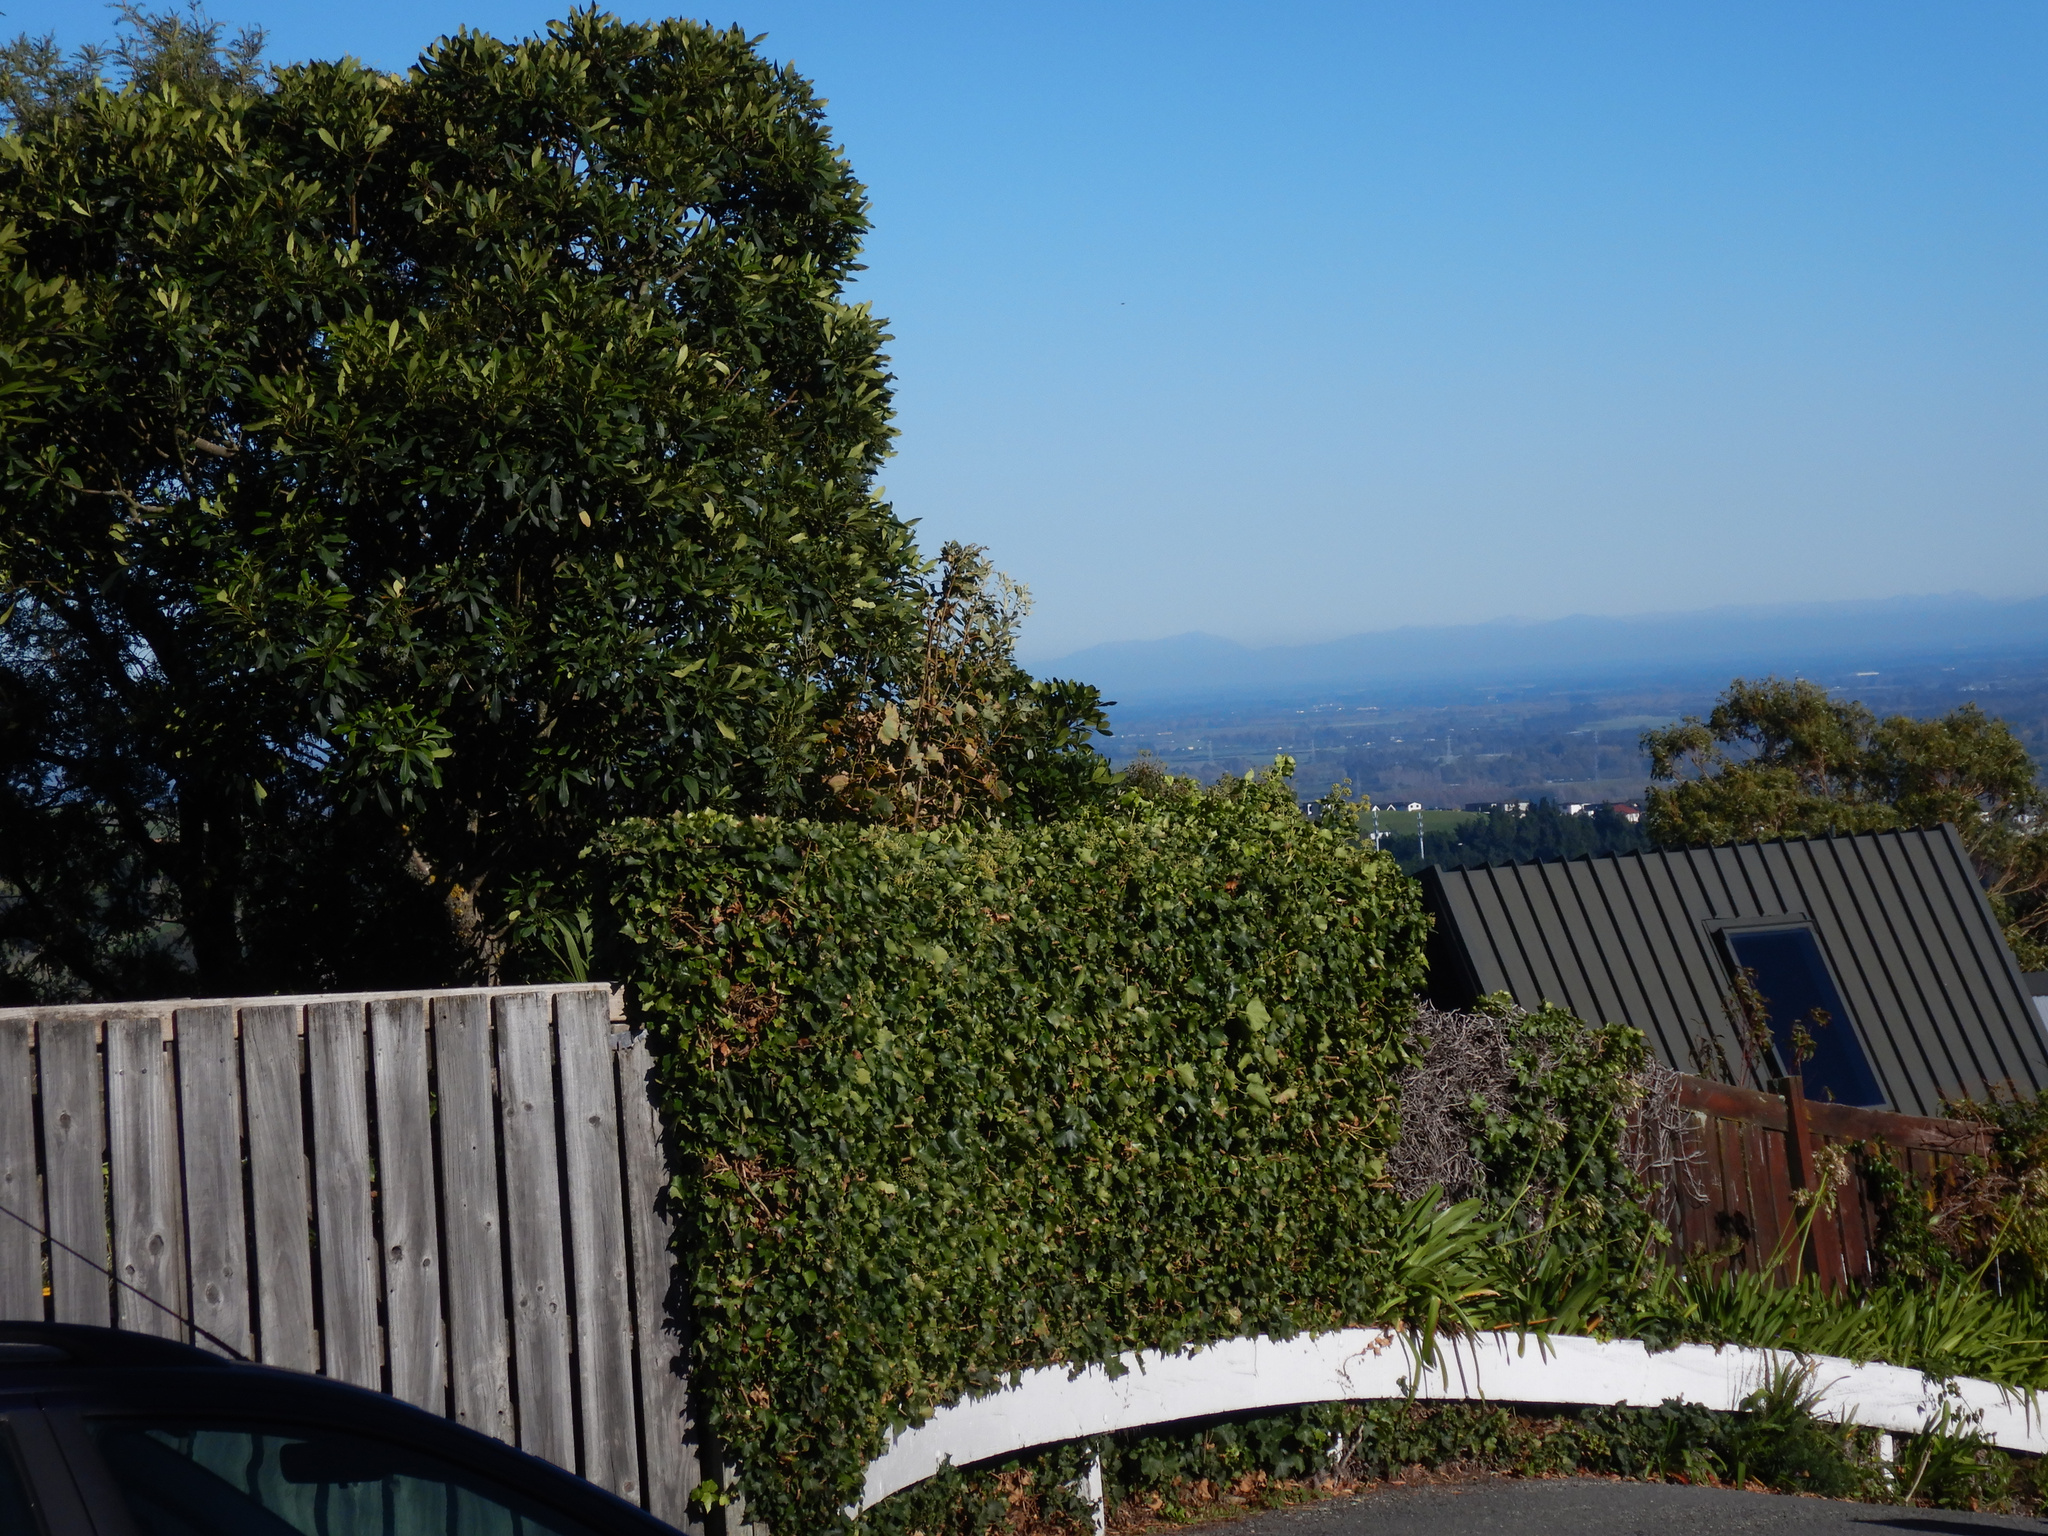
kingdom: Plantae
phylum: Tracheophyta
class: Magnoliopsida
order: Sapindales
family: Sapindaceae
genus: Acer
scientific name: Acer pseudoplatanus
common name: Sycamore
